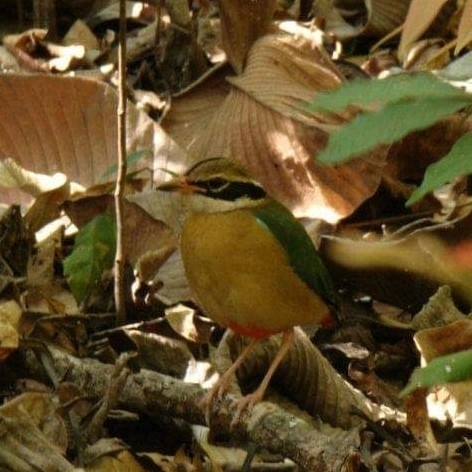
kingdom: Animalia
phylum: Chordata
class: Aves
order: Passeriformes
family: Pittidae
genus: Pitta
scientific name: Pitta brachyura
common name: Indian pitta
